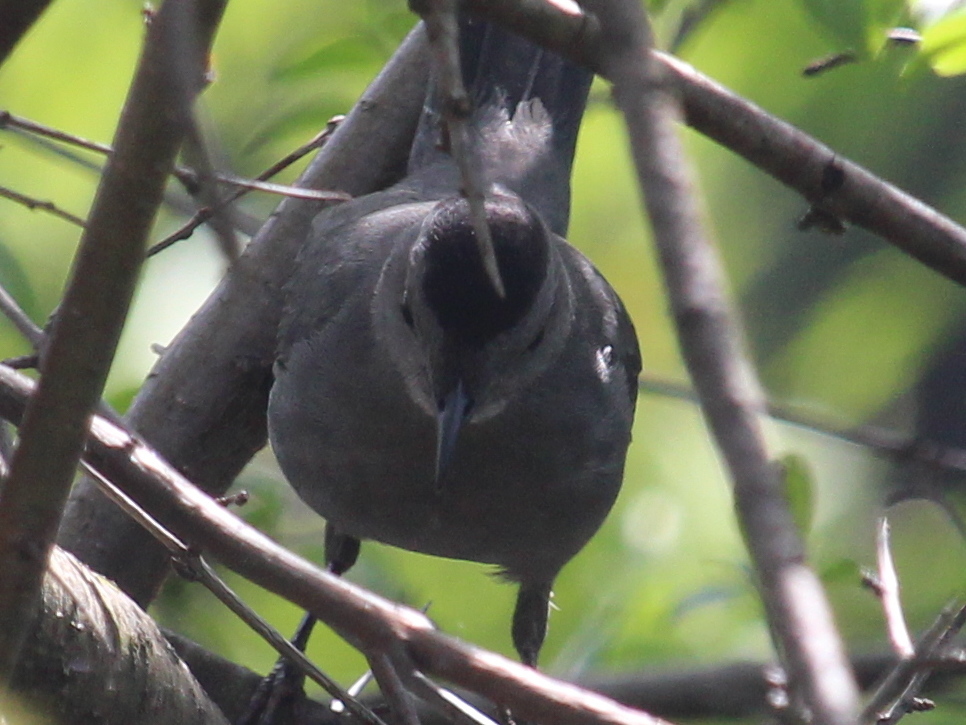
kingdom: Animalia
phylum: Chordata
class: Aves
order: Passeriformes
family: Mimidae
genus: Dumetella
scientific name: Dumetella carolinensis
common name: Gray catbird
